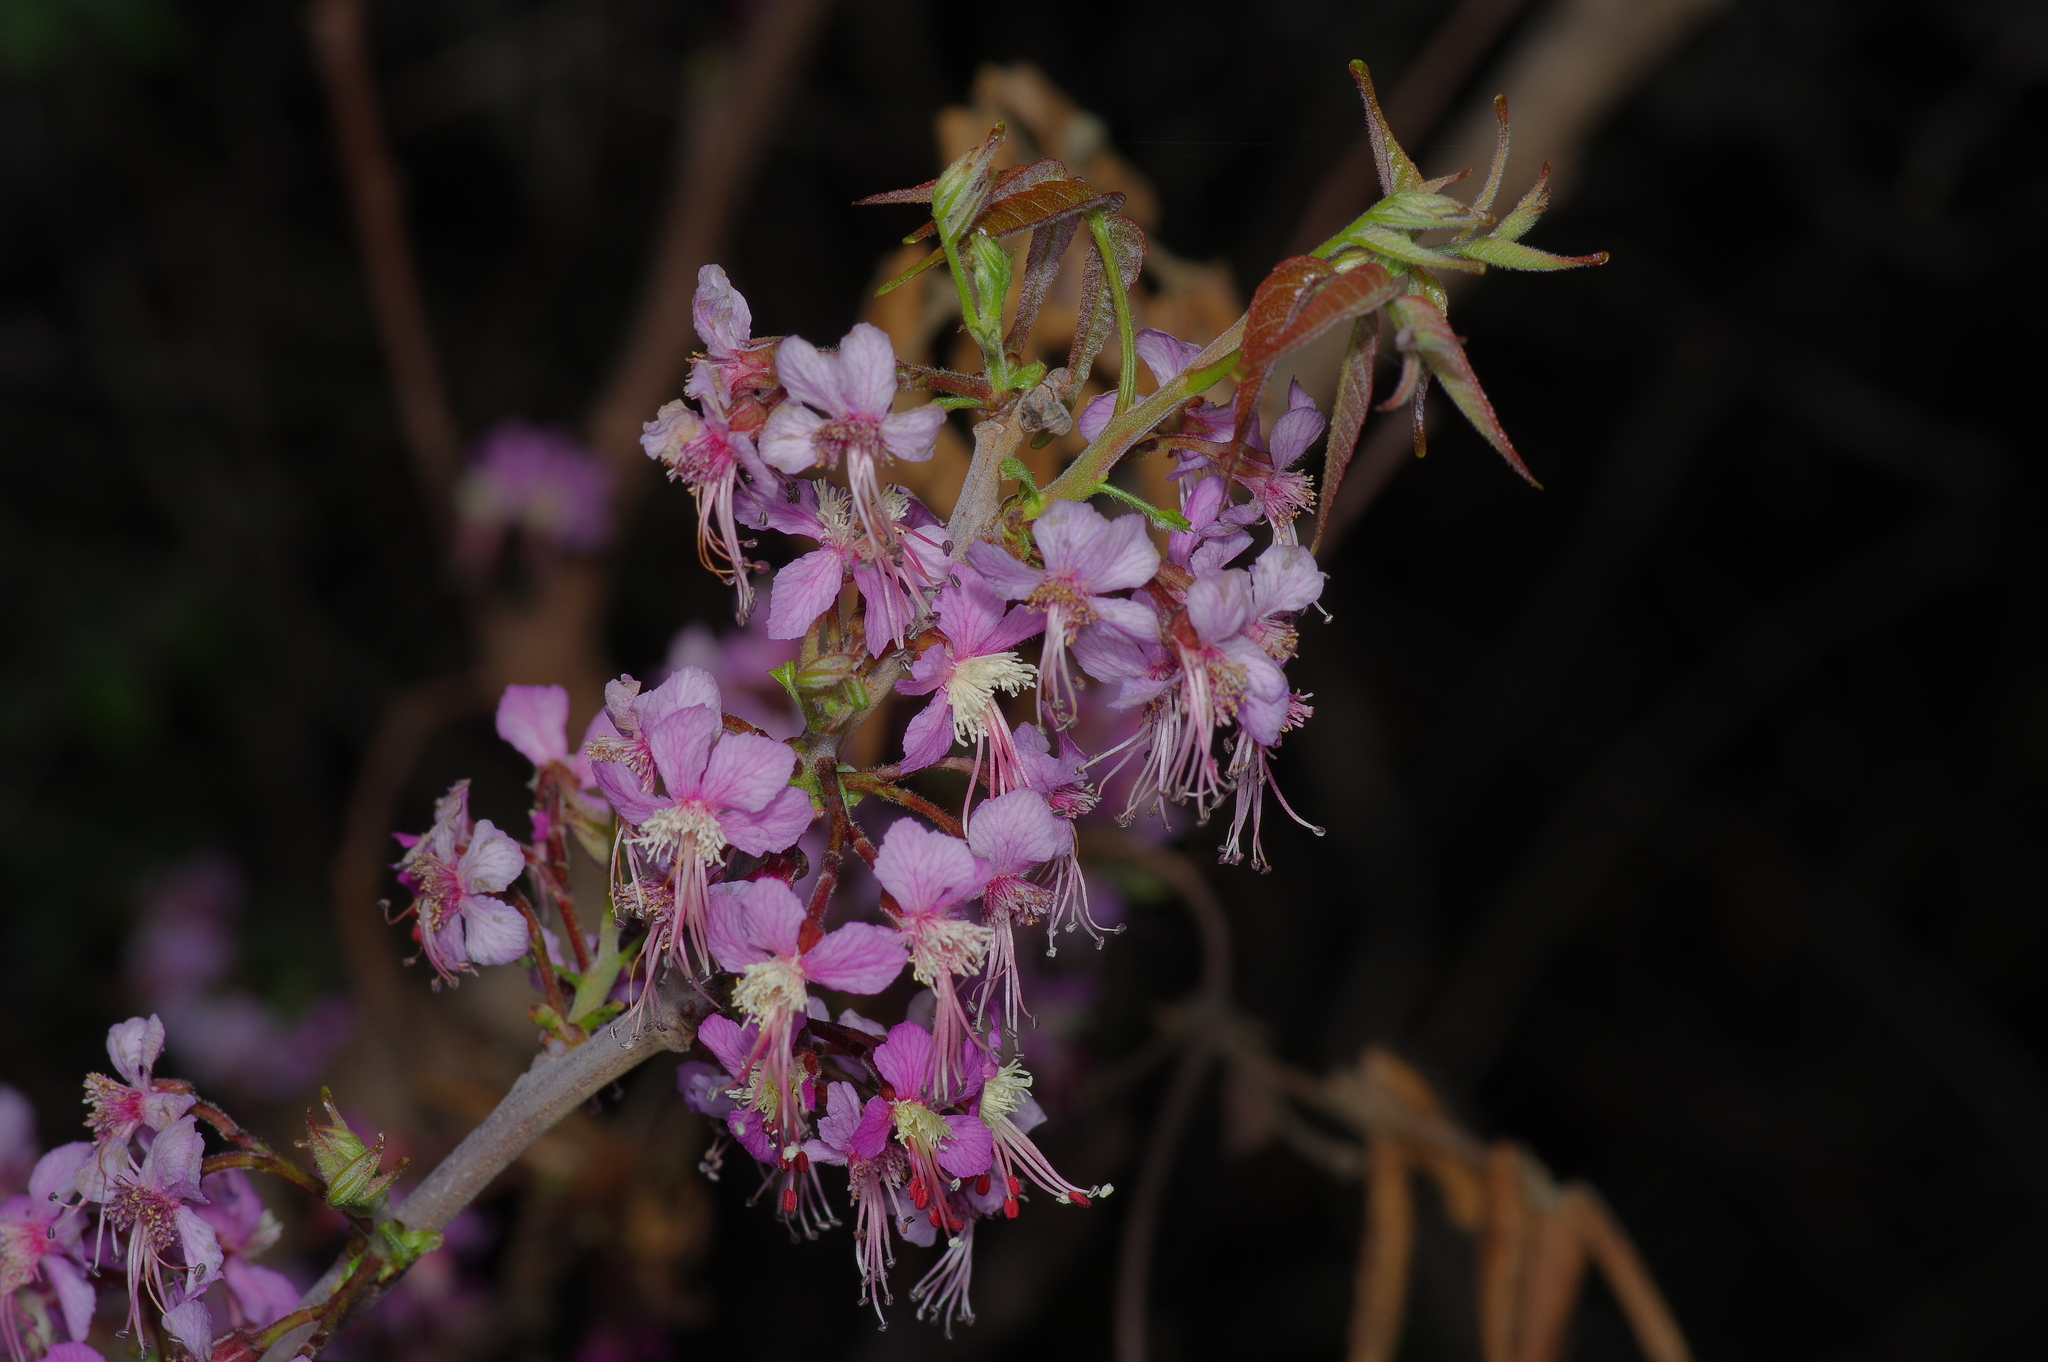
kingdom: Plantae
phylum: Tracheophyta
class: Magnoliopsida
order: Sapindales
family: Sapindaceae
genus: Ungnadia
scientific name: Ungnadia speciosa
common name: Texas-buckeye
